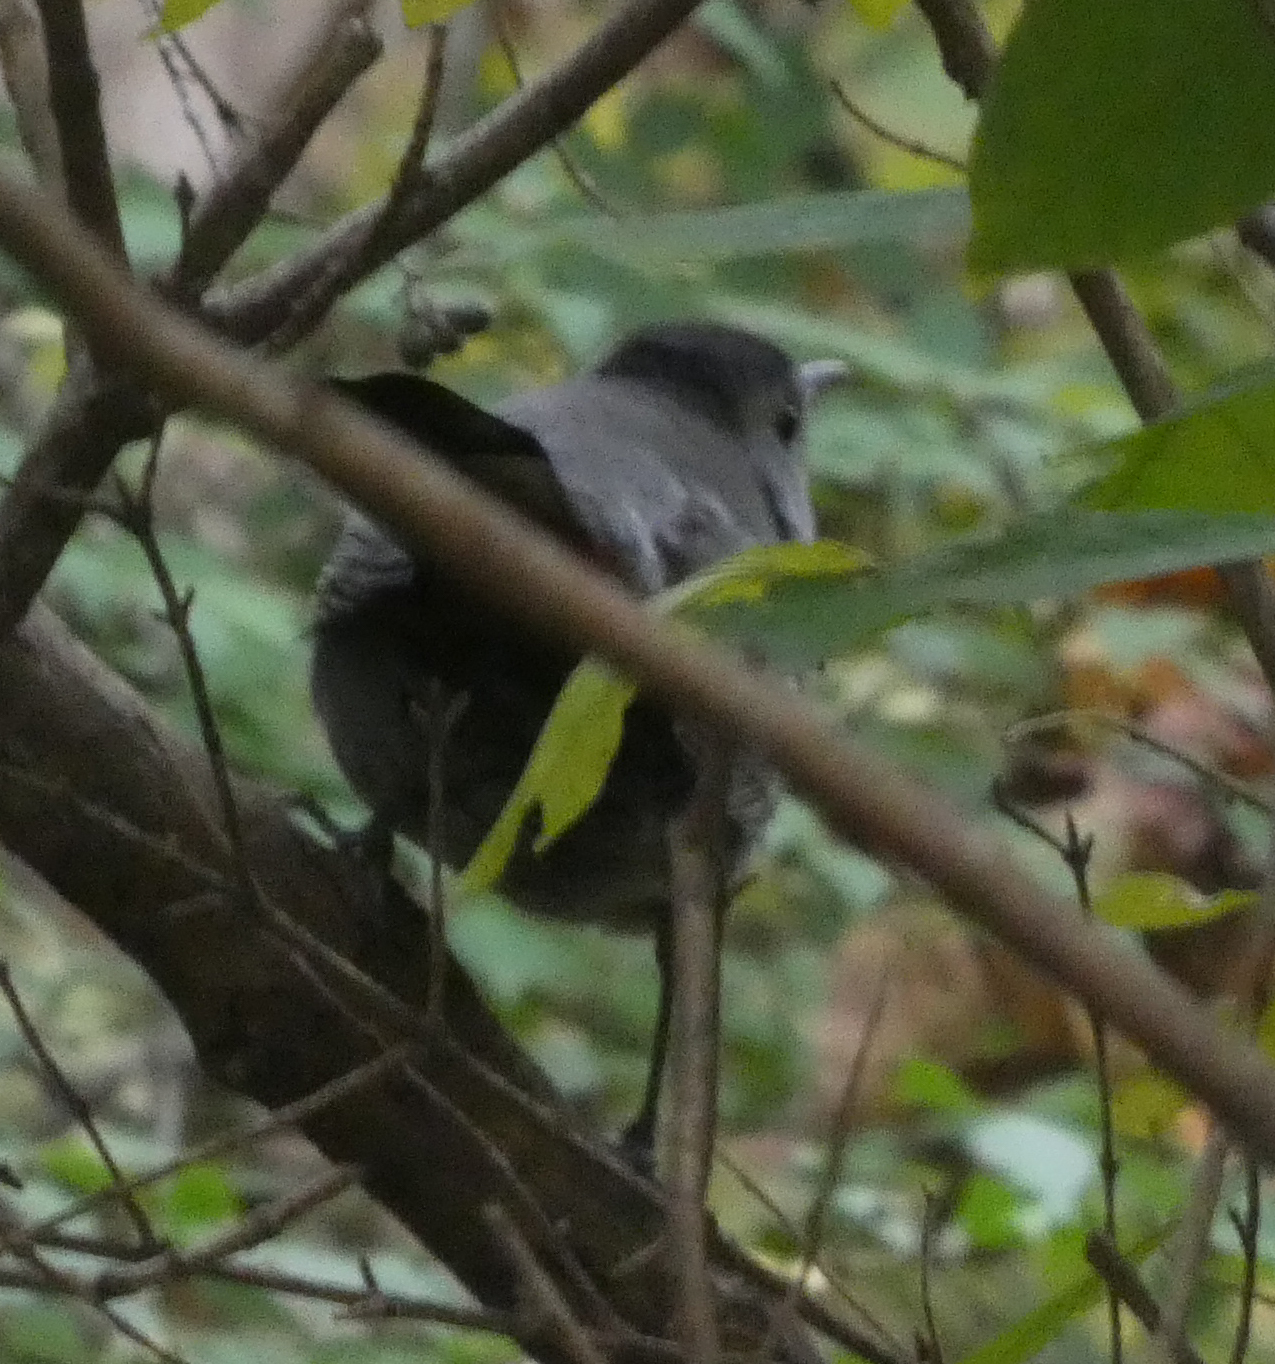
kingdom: Animalia
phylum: Chordata
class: Aves
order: Passeriformes
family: Mimidae
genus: Dumetella
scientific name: Dumetella carolinensis
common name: Gray catbird
